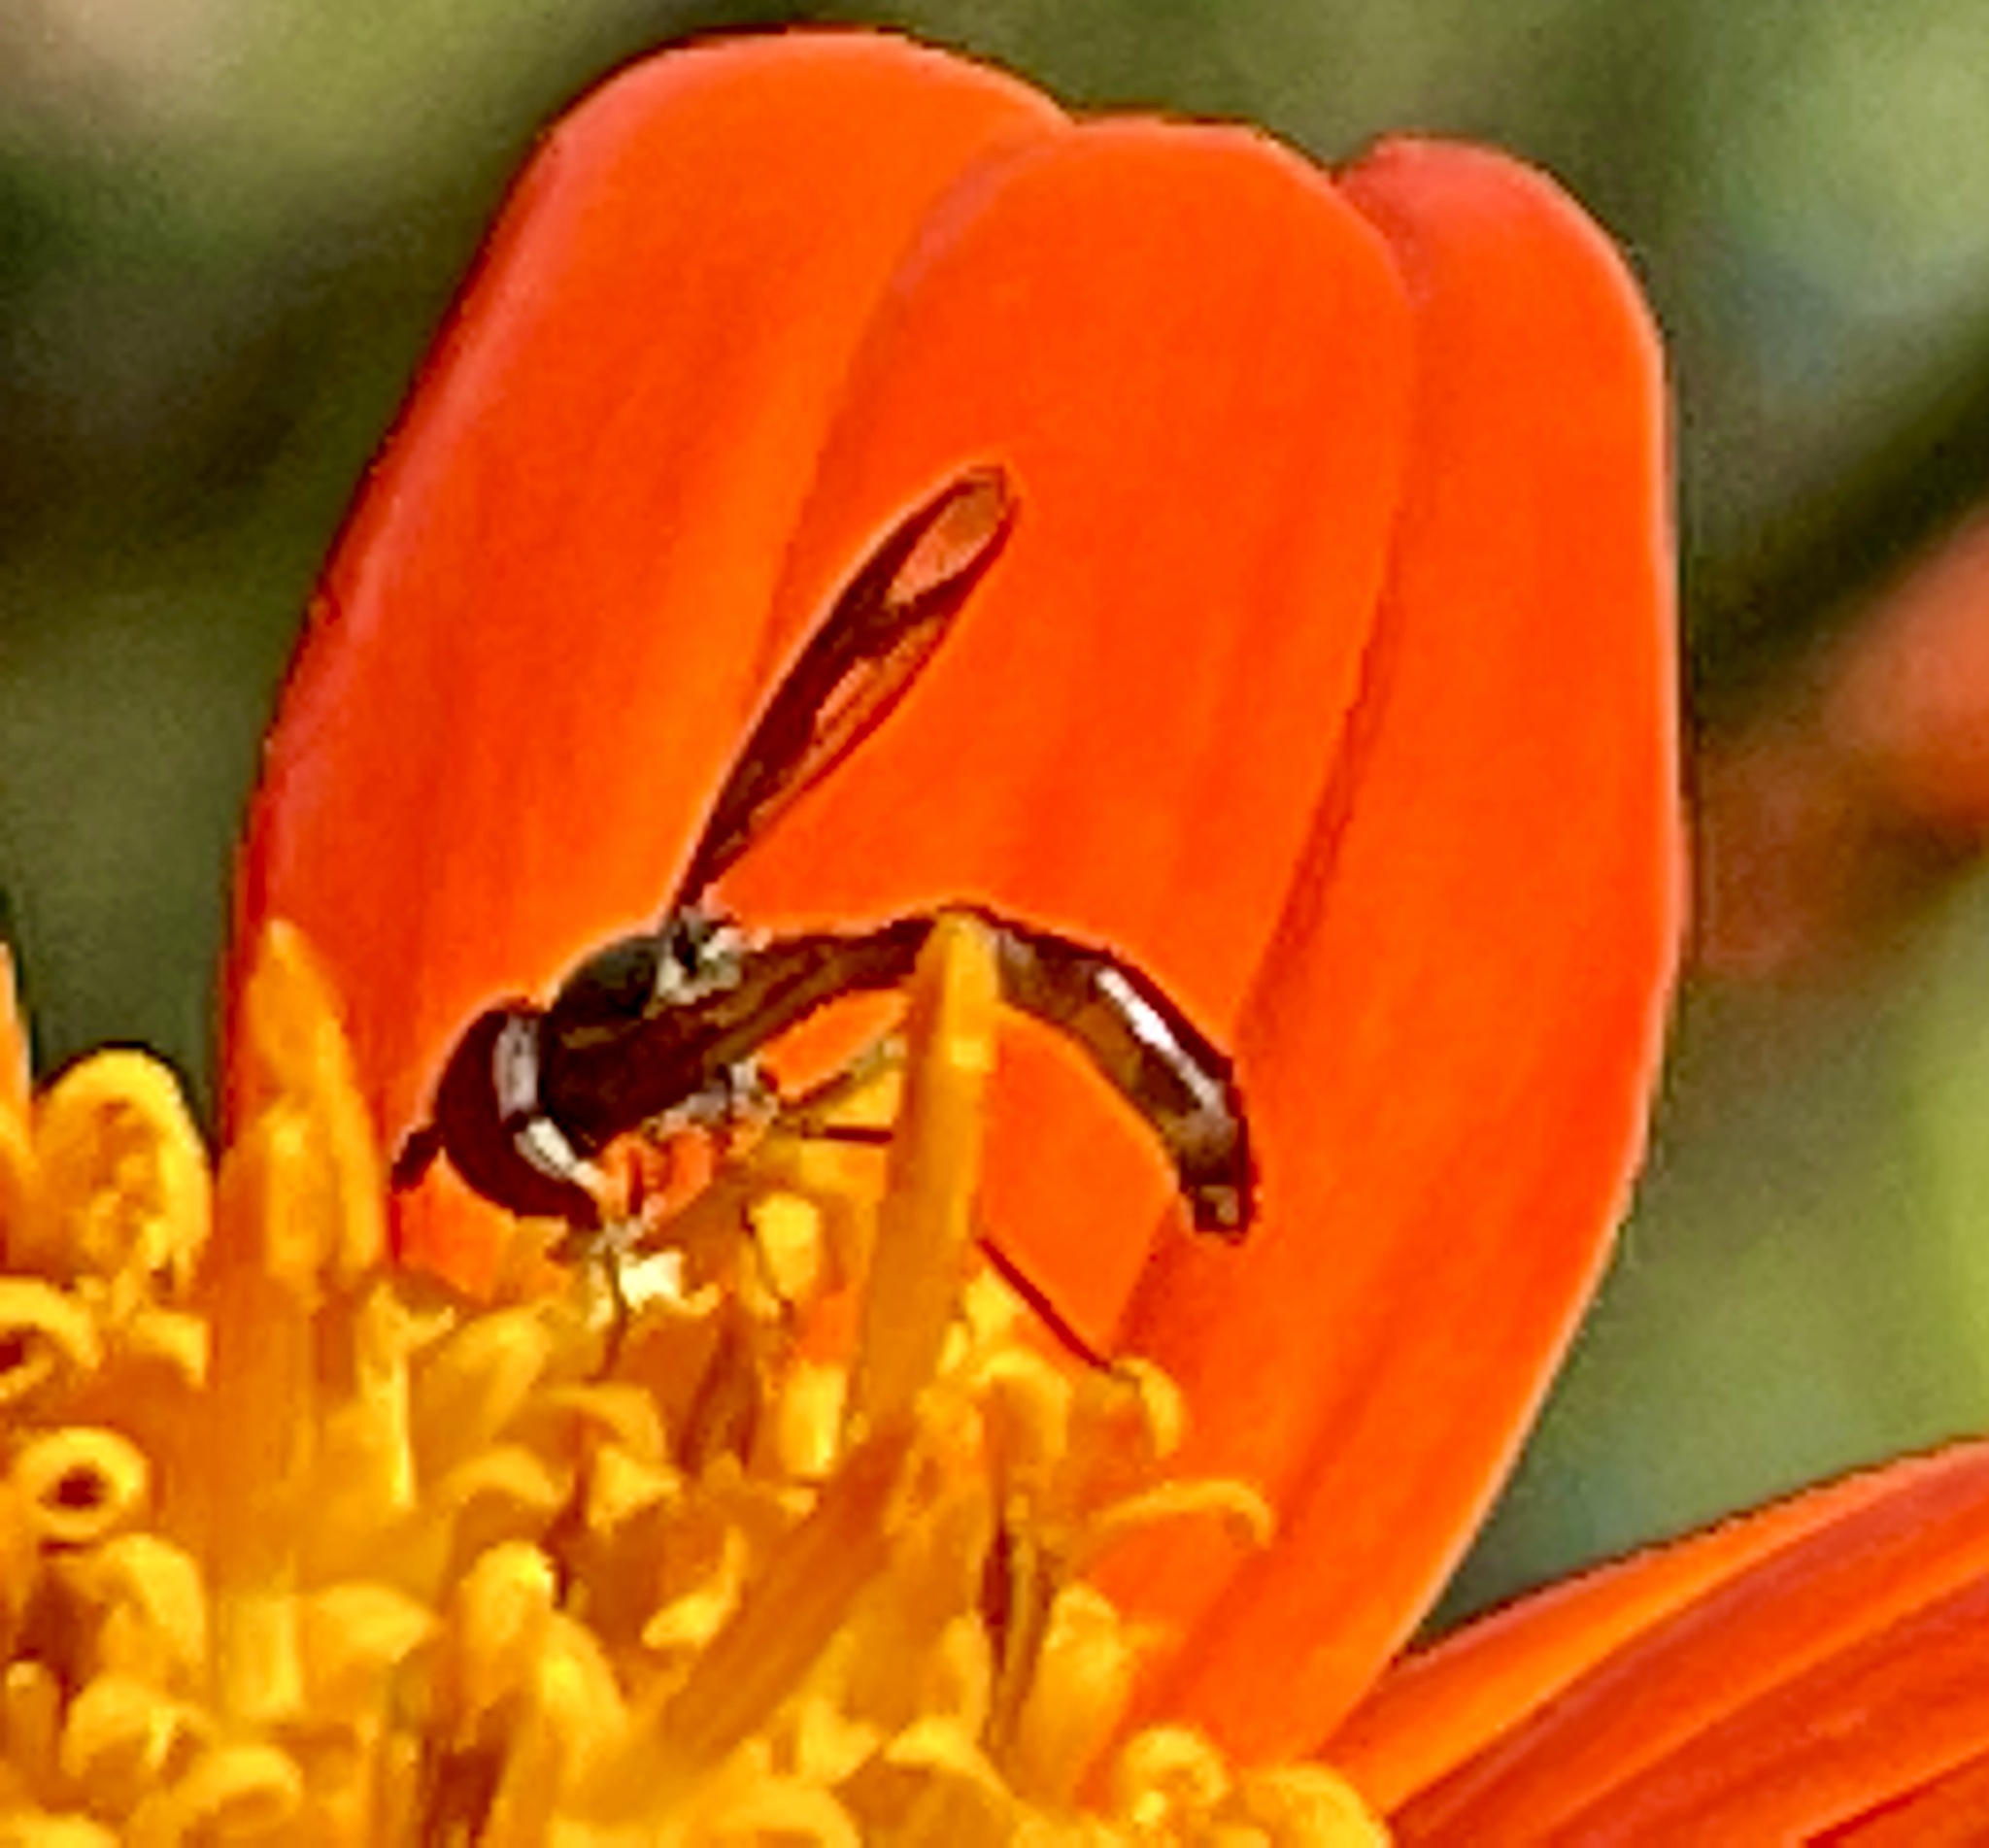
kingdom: Animalia
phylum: Arthropoda
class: Insecta
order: Diptera
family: Syrphidae
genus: Ocyptamus
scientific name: Ocyptamus fuscipennis
